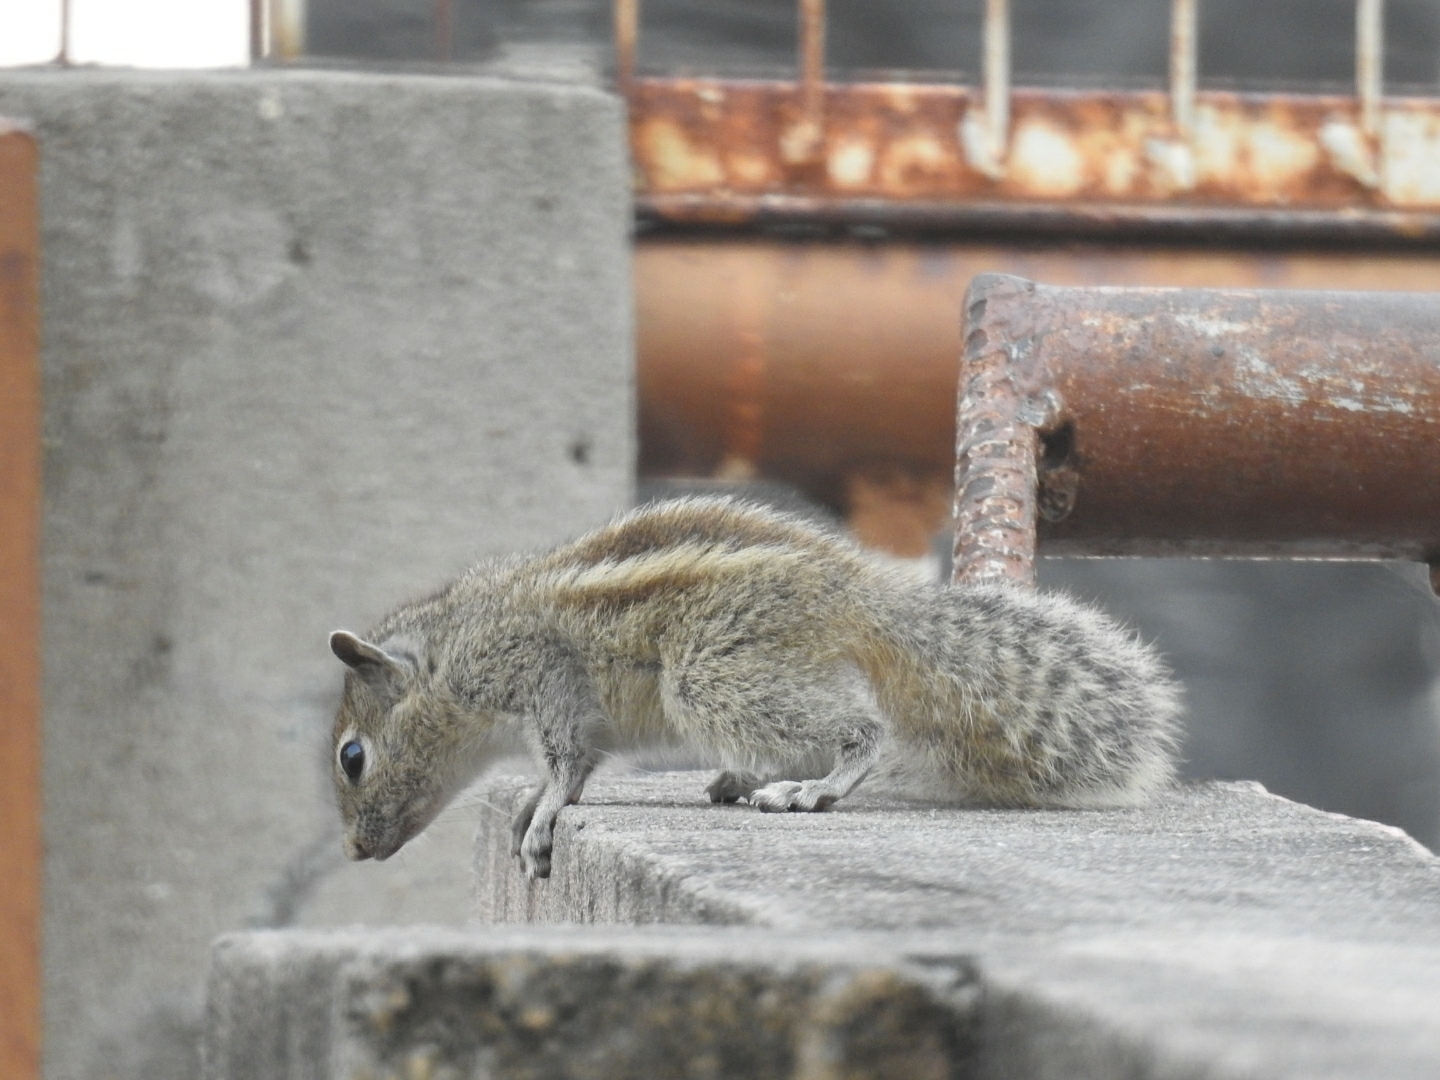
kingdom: Animalia
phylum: Chordata
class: Mammalia
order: Rodentia
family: Sciuridae
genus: Funambulus
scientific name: Funambulus palmarum
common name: Indian palm squirrel
